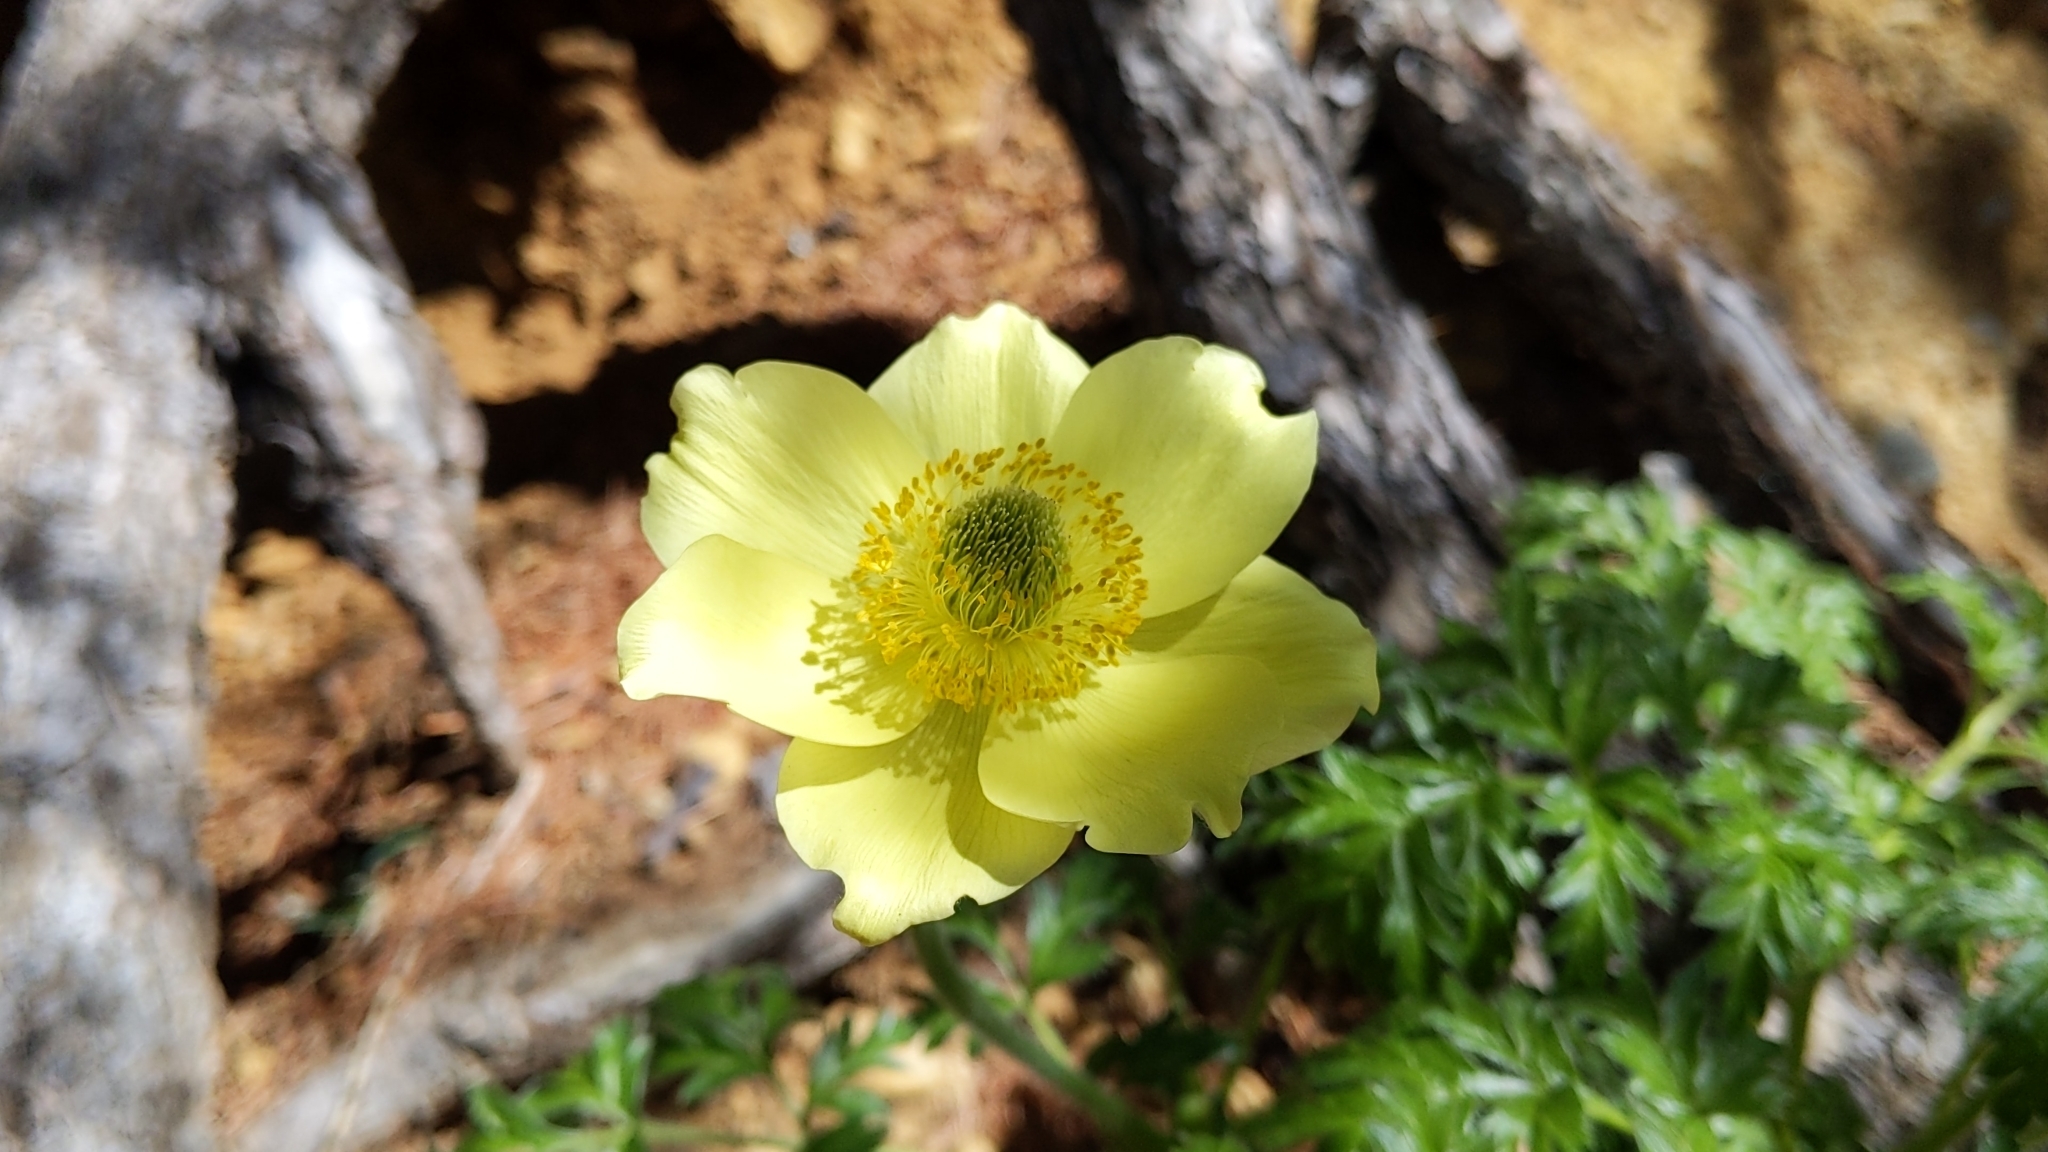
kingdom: Plantae
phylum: Tracheophyta
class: Magnoliopsida
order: Ranunculales
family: Ranunculaceae
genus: Pulsatilla
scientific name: Pulsatilla alpina
